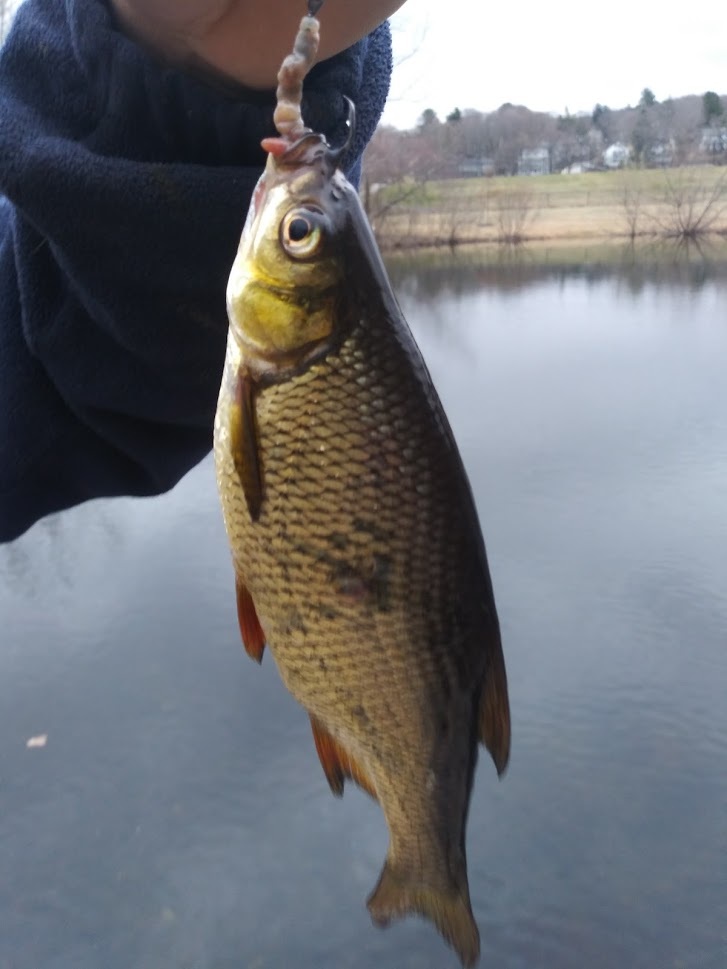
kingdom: Animalia
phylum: Chordata
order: Cypriniformes
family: Cyprinidae
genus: Notemigonus
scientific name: Notemigonus crysoleucas
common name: Golden shiner
